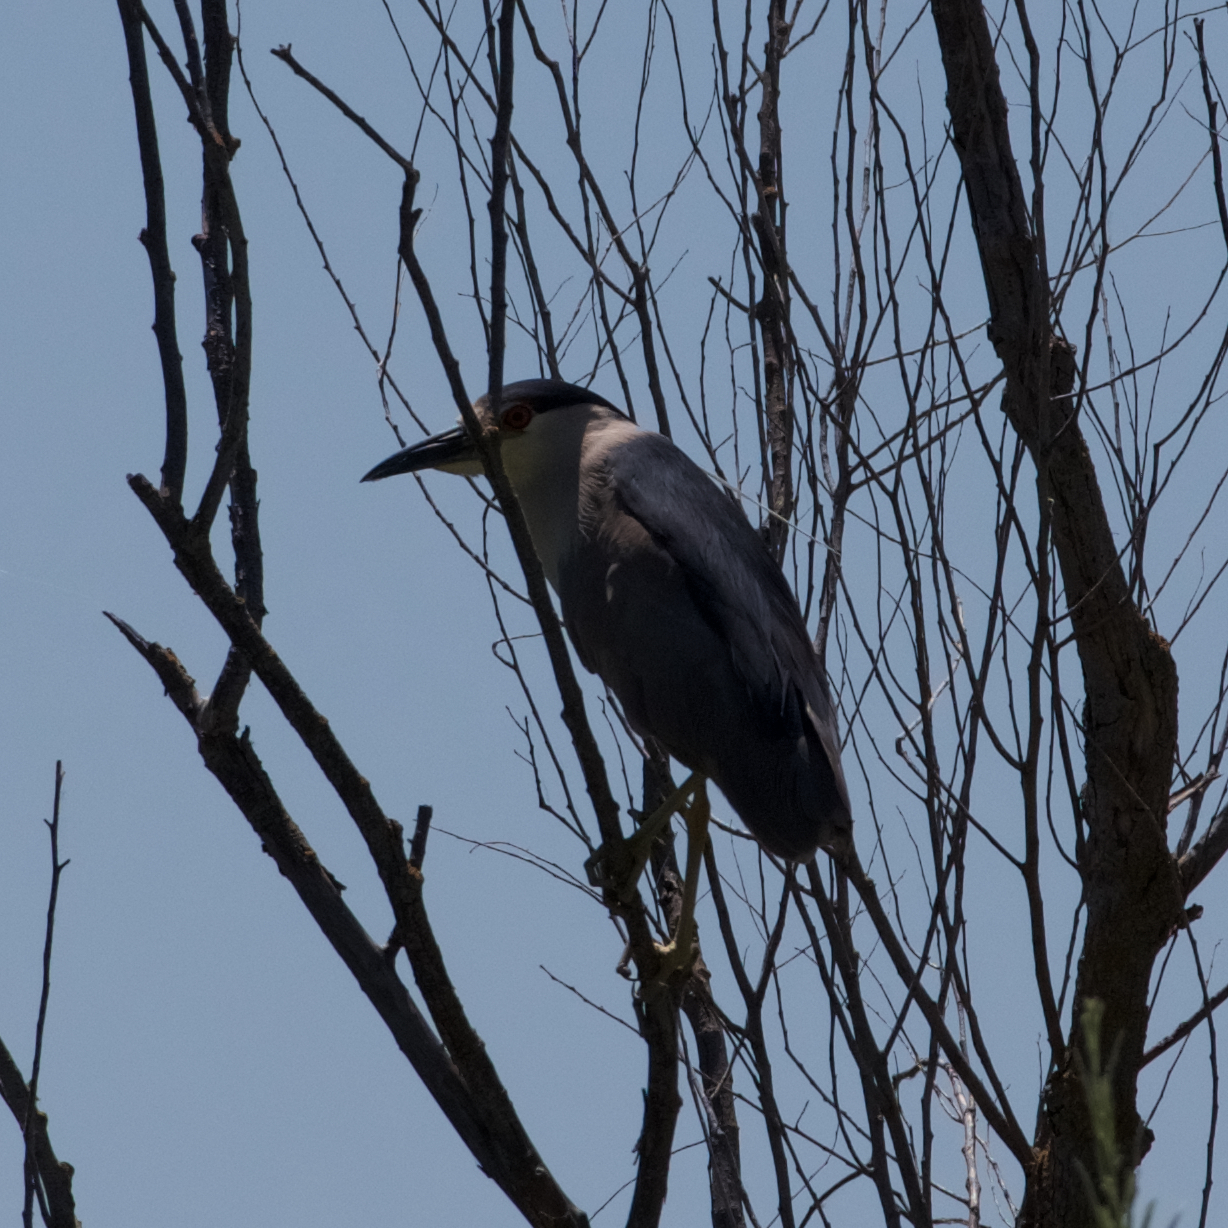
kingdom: Animalia
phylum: Chordata
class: Aves
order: Pelecaniformes
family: Ardeidae
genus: Nycticorax
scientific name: Nycticorax nycticorax
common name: Black-crowned night heron
